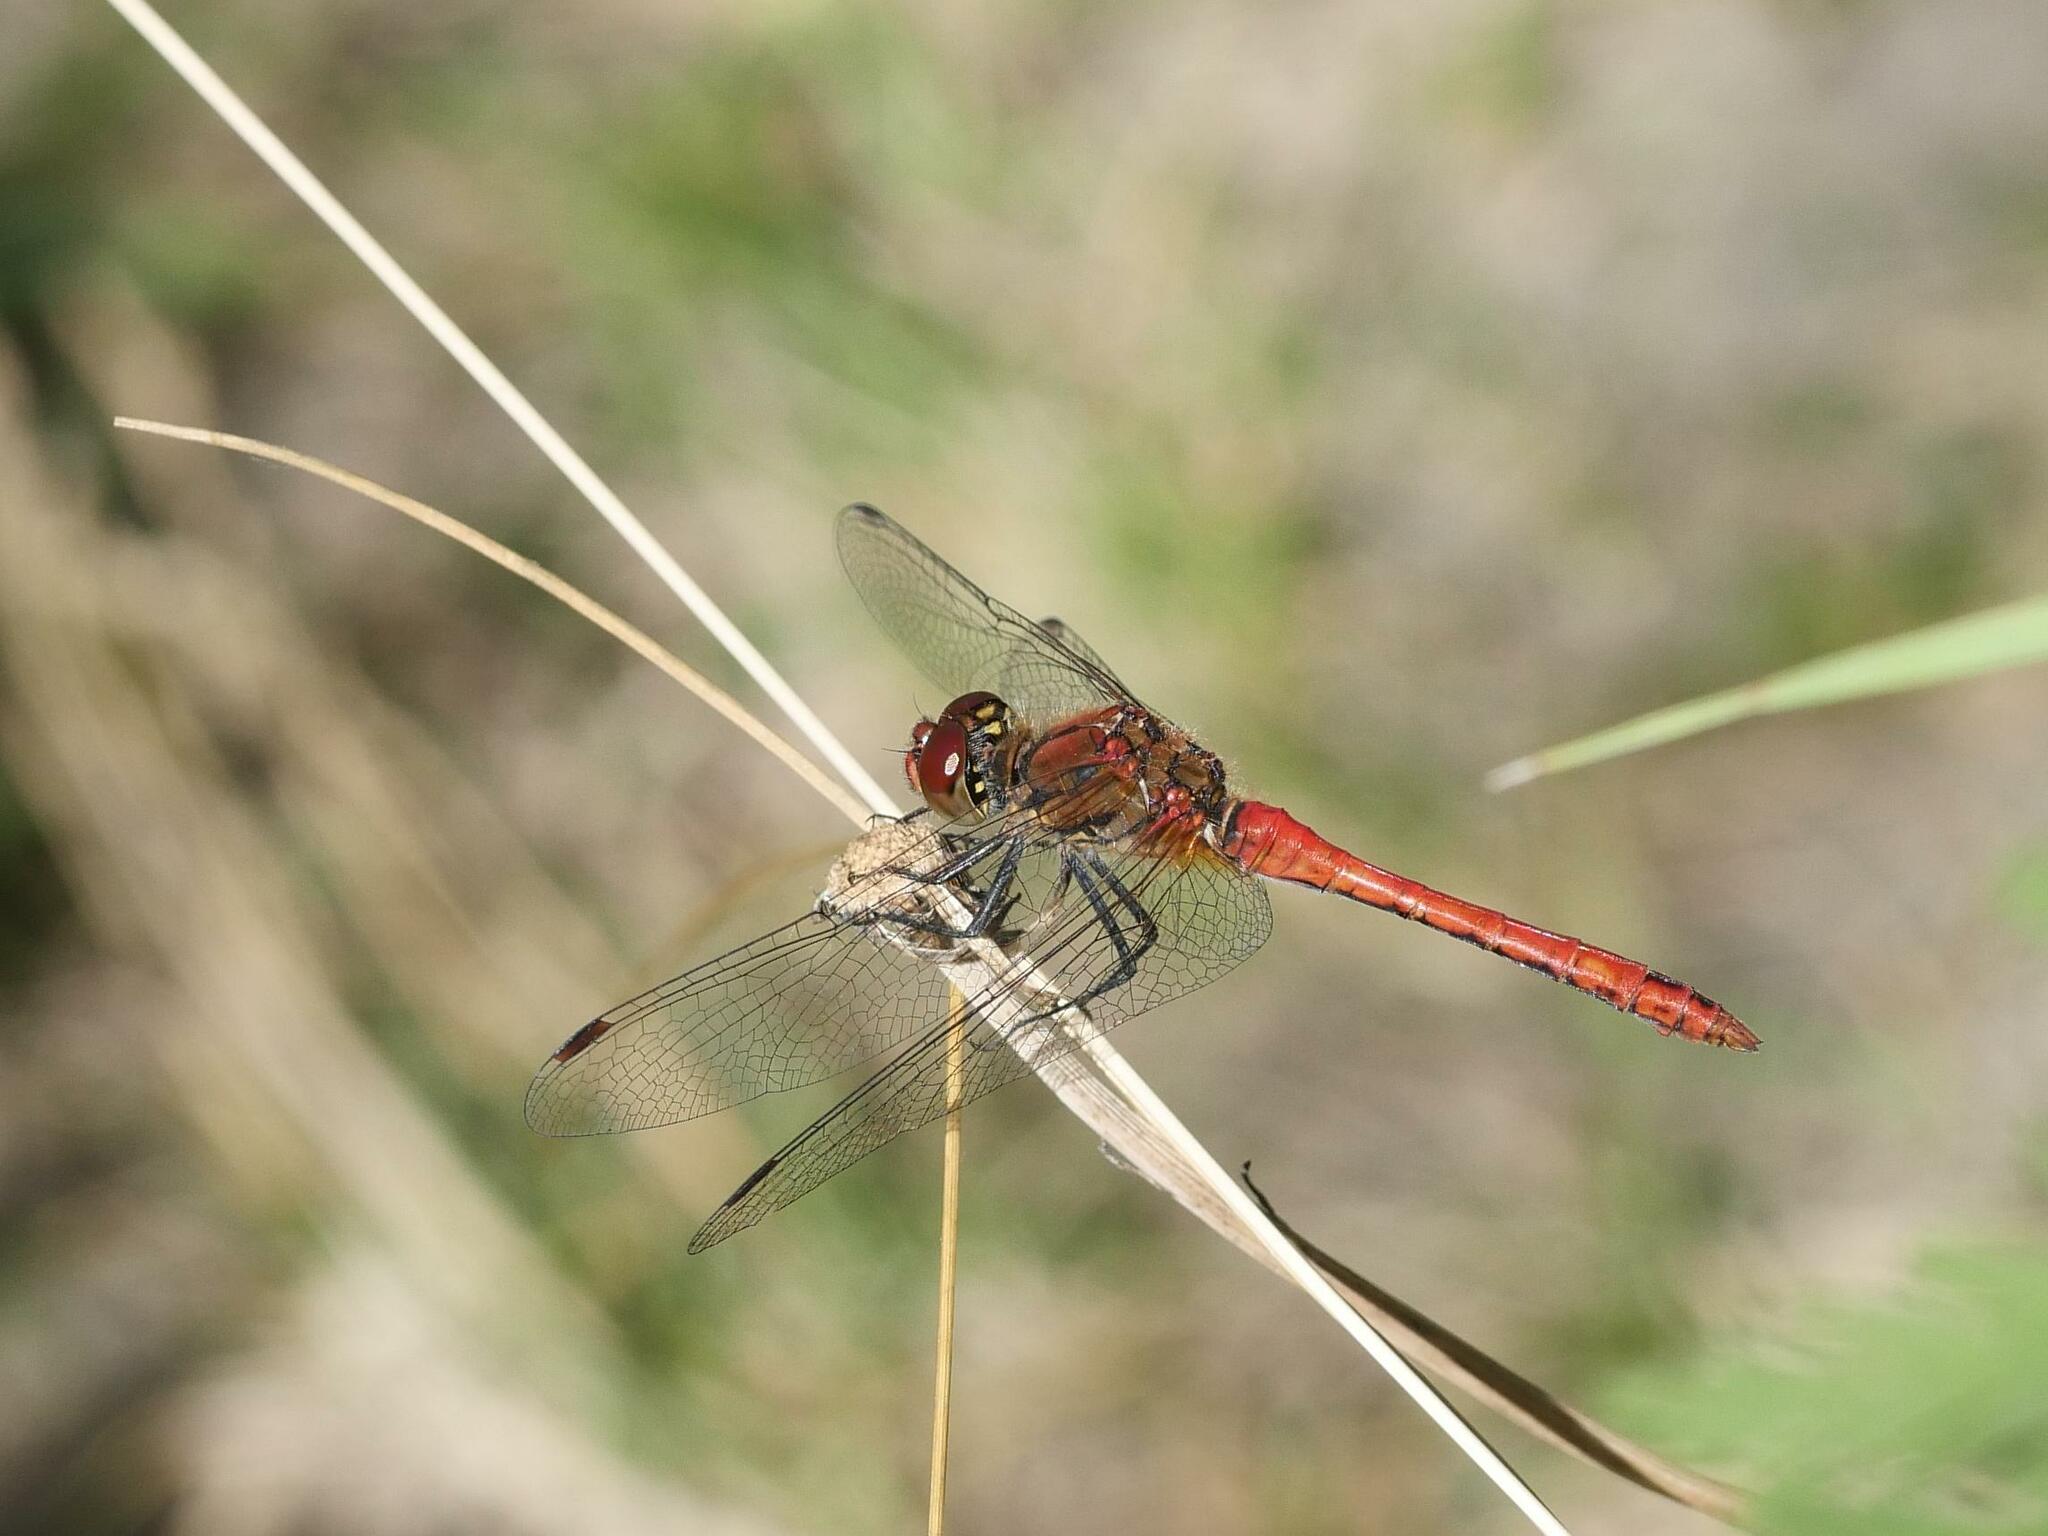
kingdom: Animalia
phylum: Arthropoda
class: Insecta
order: Odonata
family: Libellulidae
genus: Sympetrum
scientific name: Sympetrum sanguineum
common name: Ruddy darter
